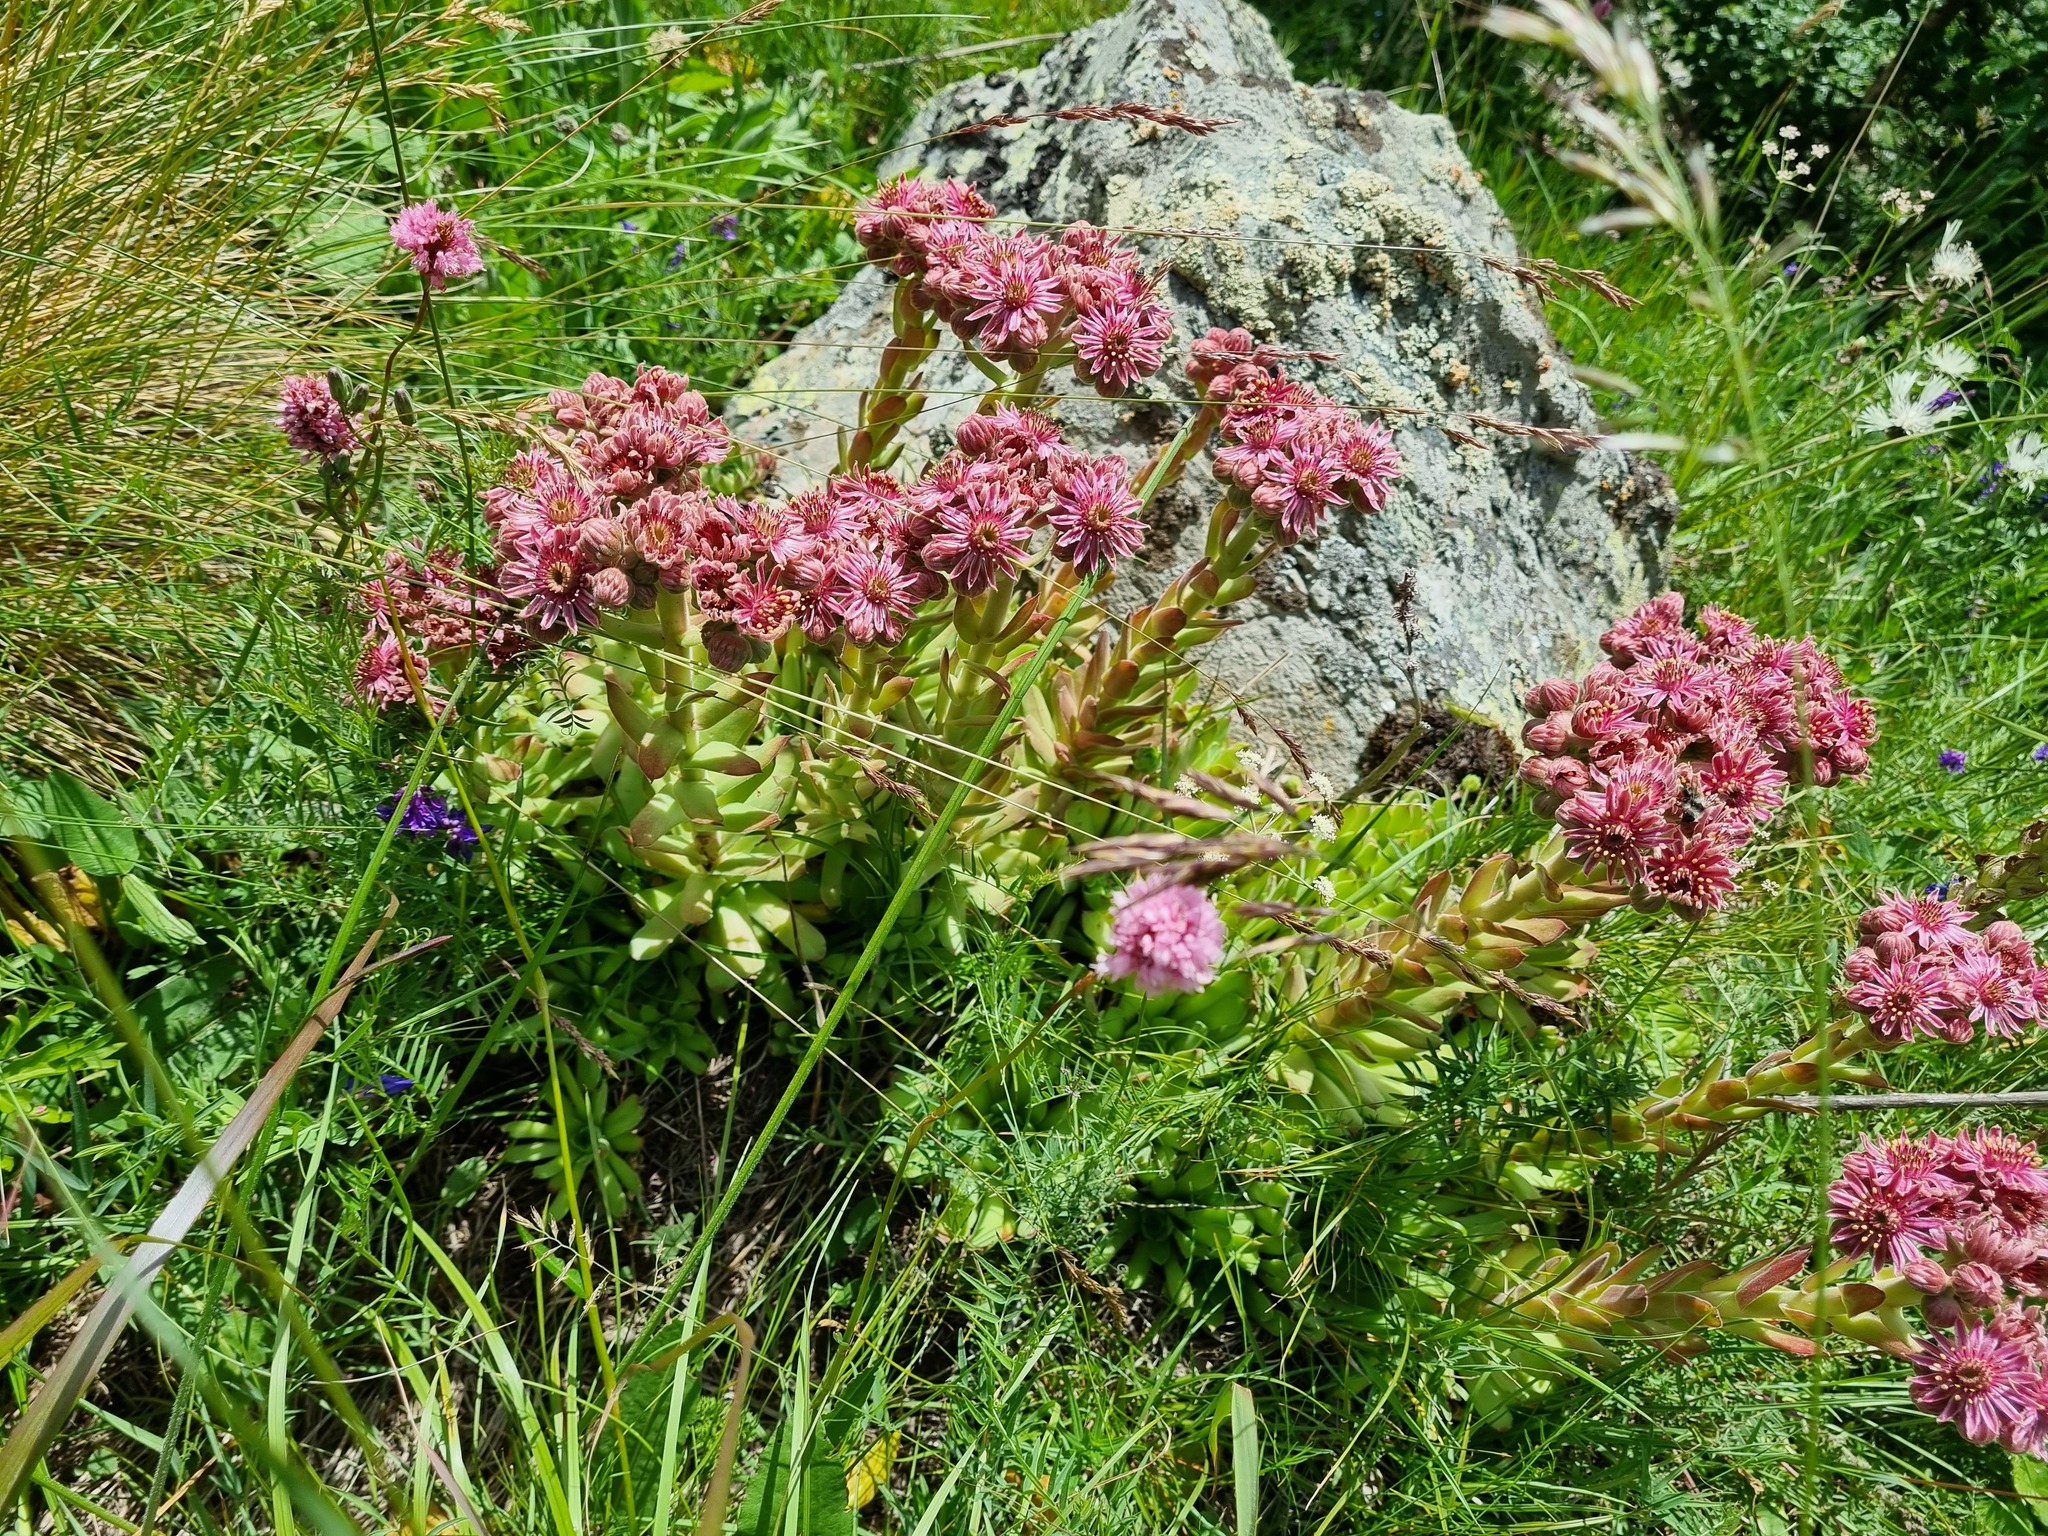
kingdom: Plantae
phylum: Tracheophyta
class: Magnoliopsida
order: Saxifragales
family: Crassulaceae
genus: Sempervivum
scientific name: Sempervivum caucasicum
